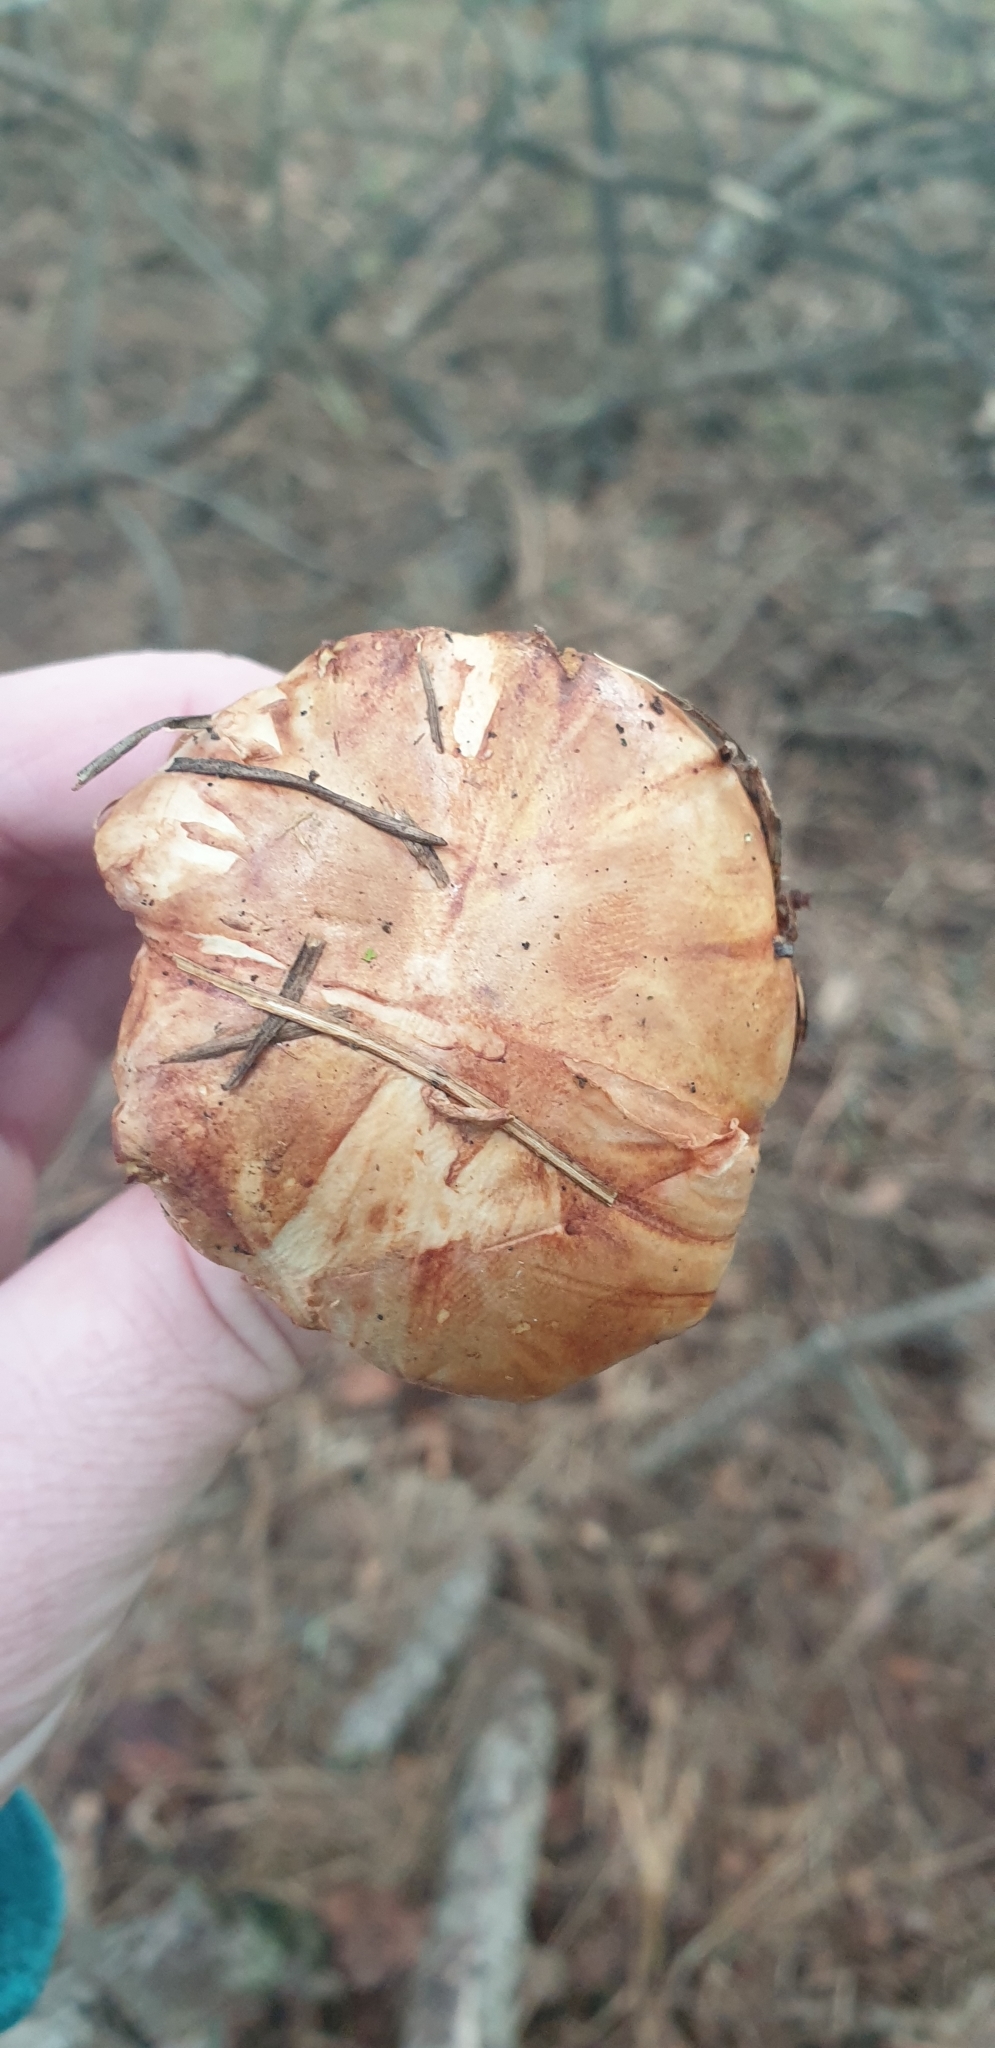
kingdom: Fungi
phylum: Basidiomycota
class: Agaricomycetes
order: Boletales
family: Boletaceae
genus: Chalciporus
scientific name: Chalciporus piperatus
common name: Peppery bolete
